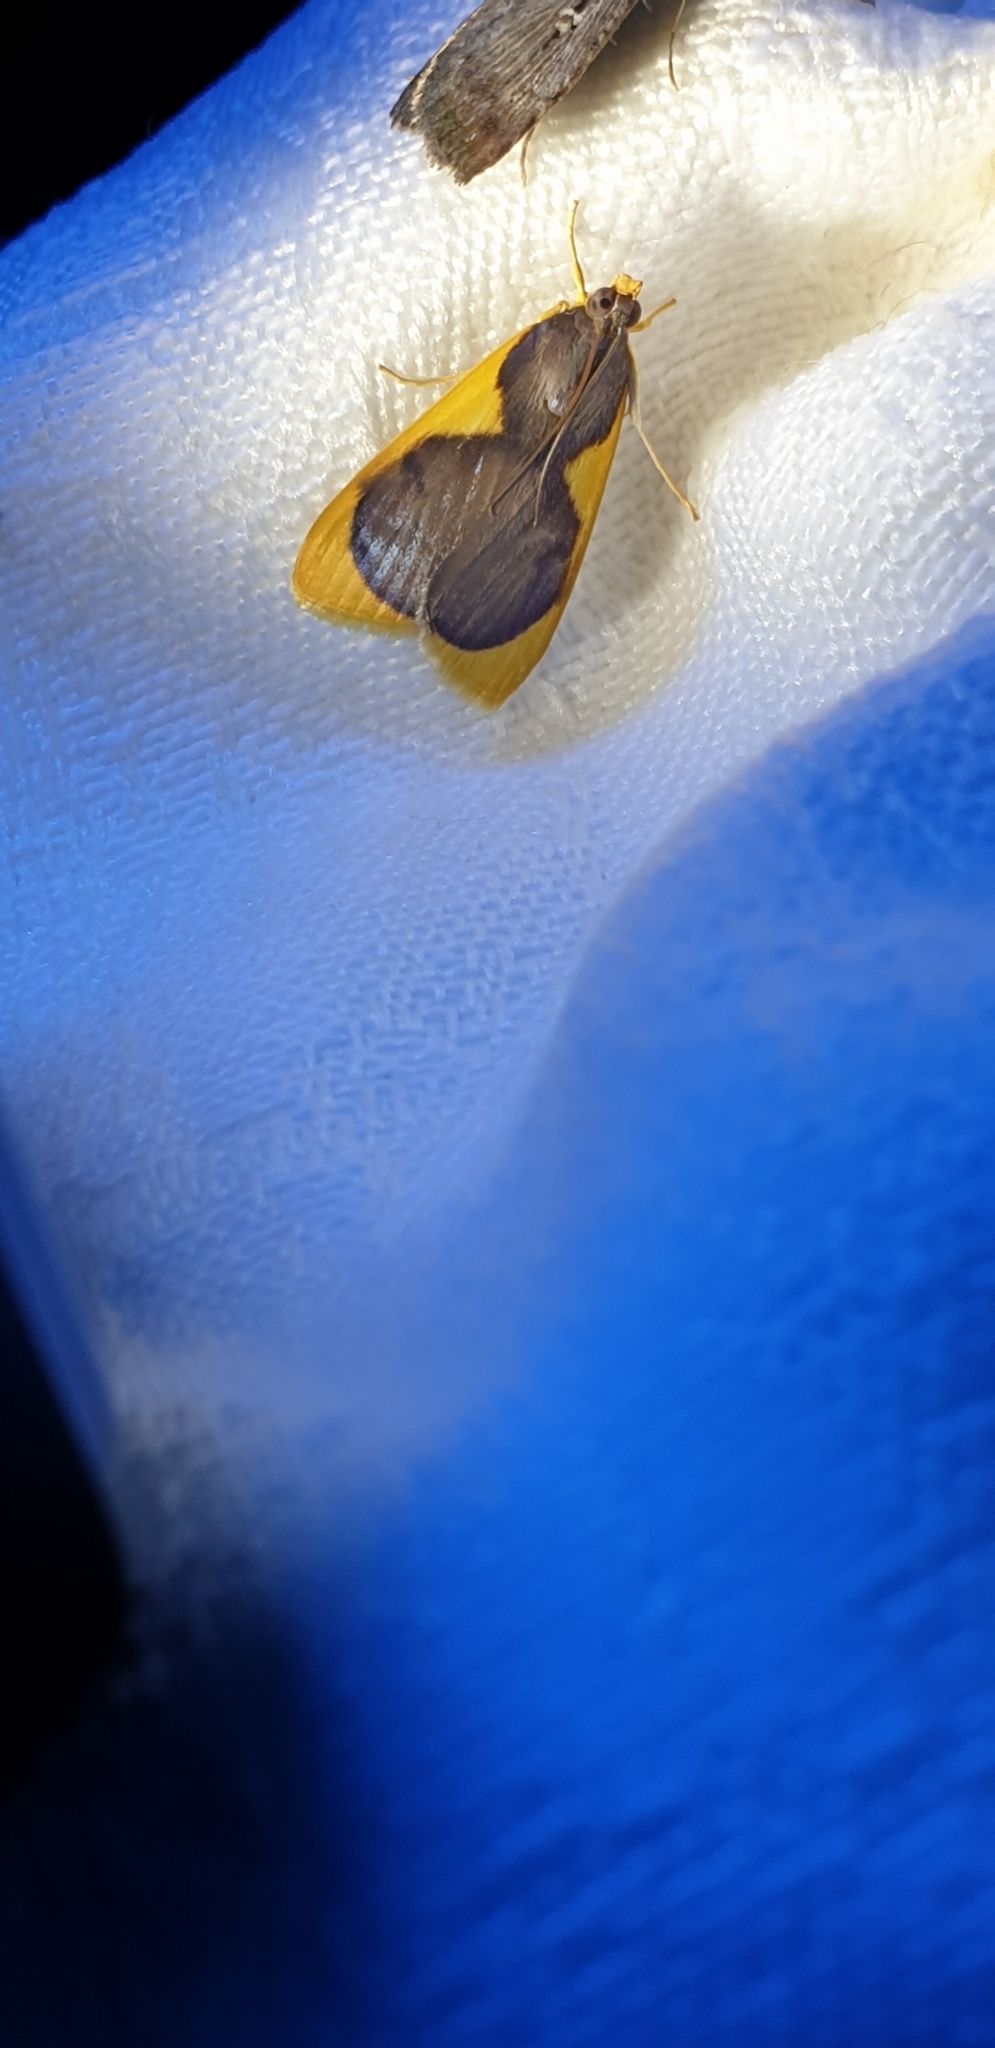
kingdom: Animalia
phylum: Arthropoda
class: Insecta
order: Lepidoptera
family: Crambidae
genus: Prooedema
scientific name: Prooedema inscisalis
